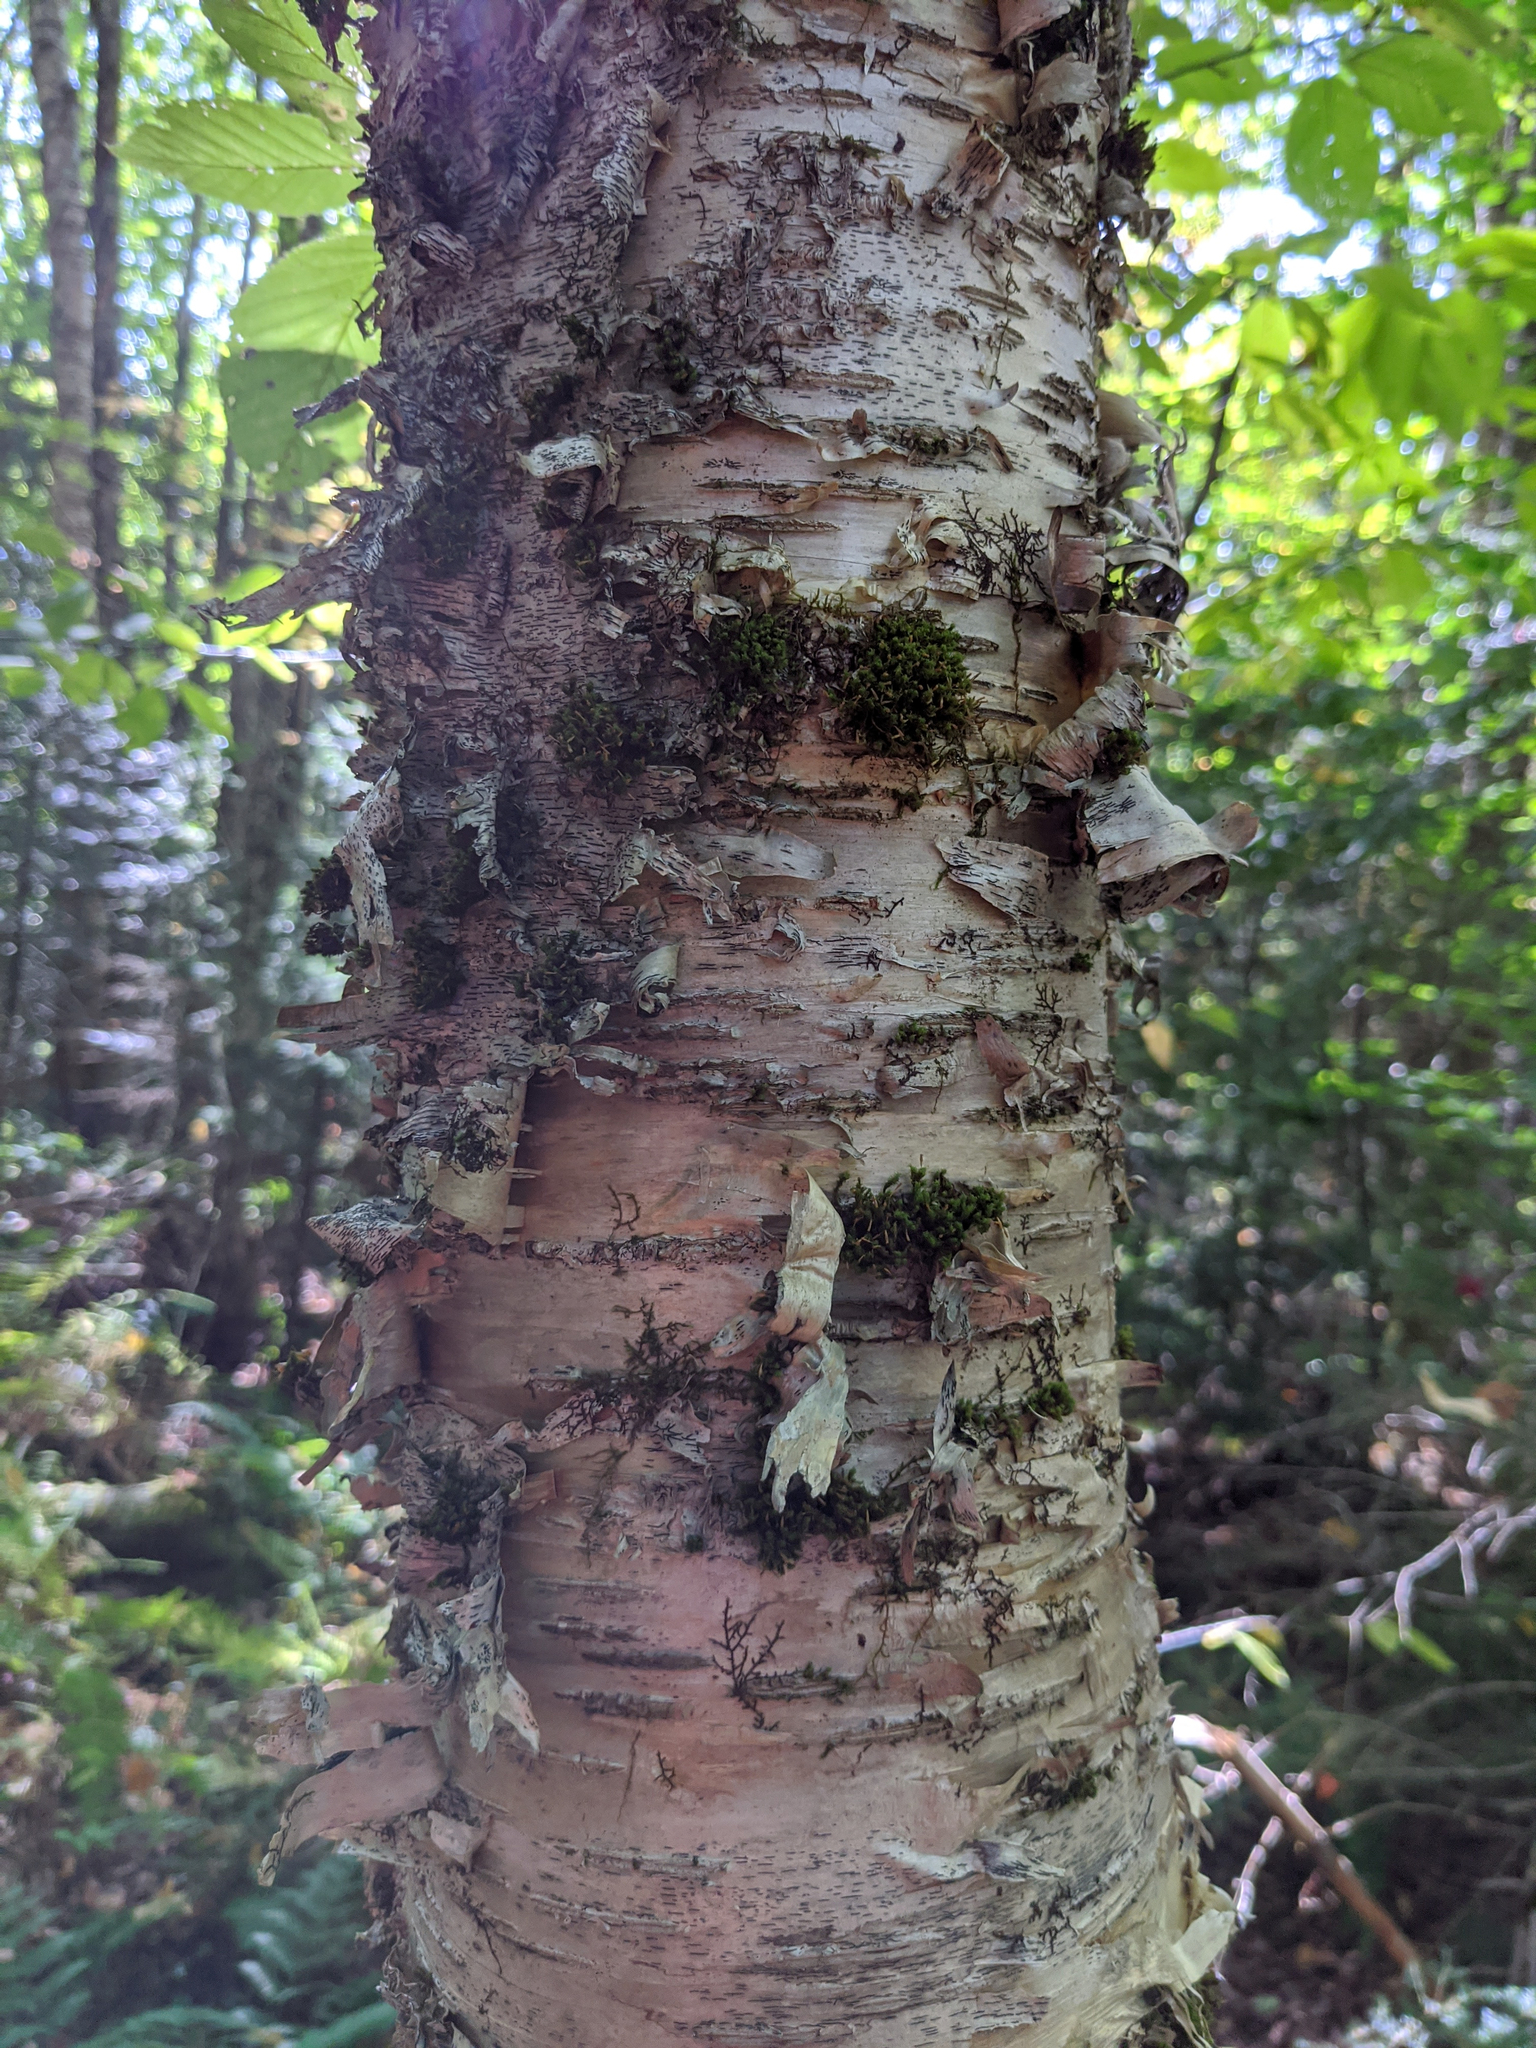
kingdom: Plantae
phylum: Bryophyta
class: Bryopsida
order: Orthotrichales
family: Orthotrichaceae
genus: Ulota
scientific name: Ulota crispa
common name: Crisped pincushion moss
